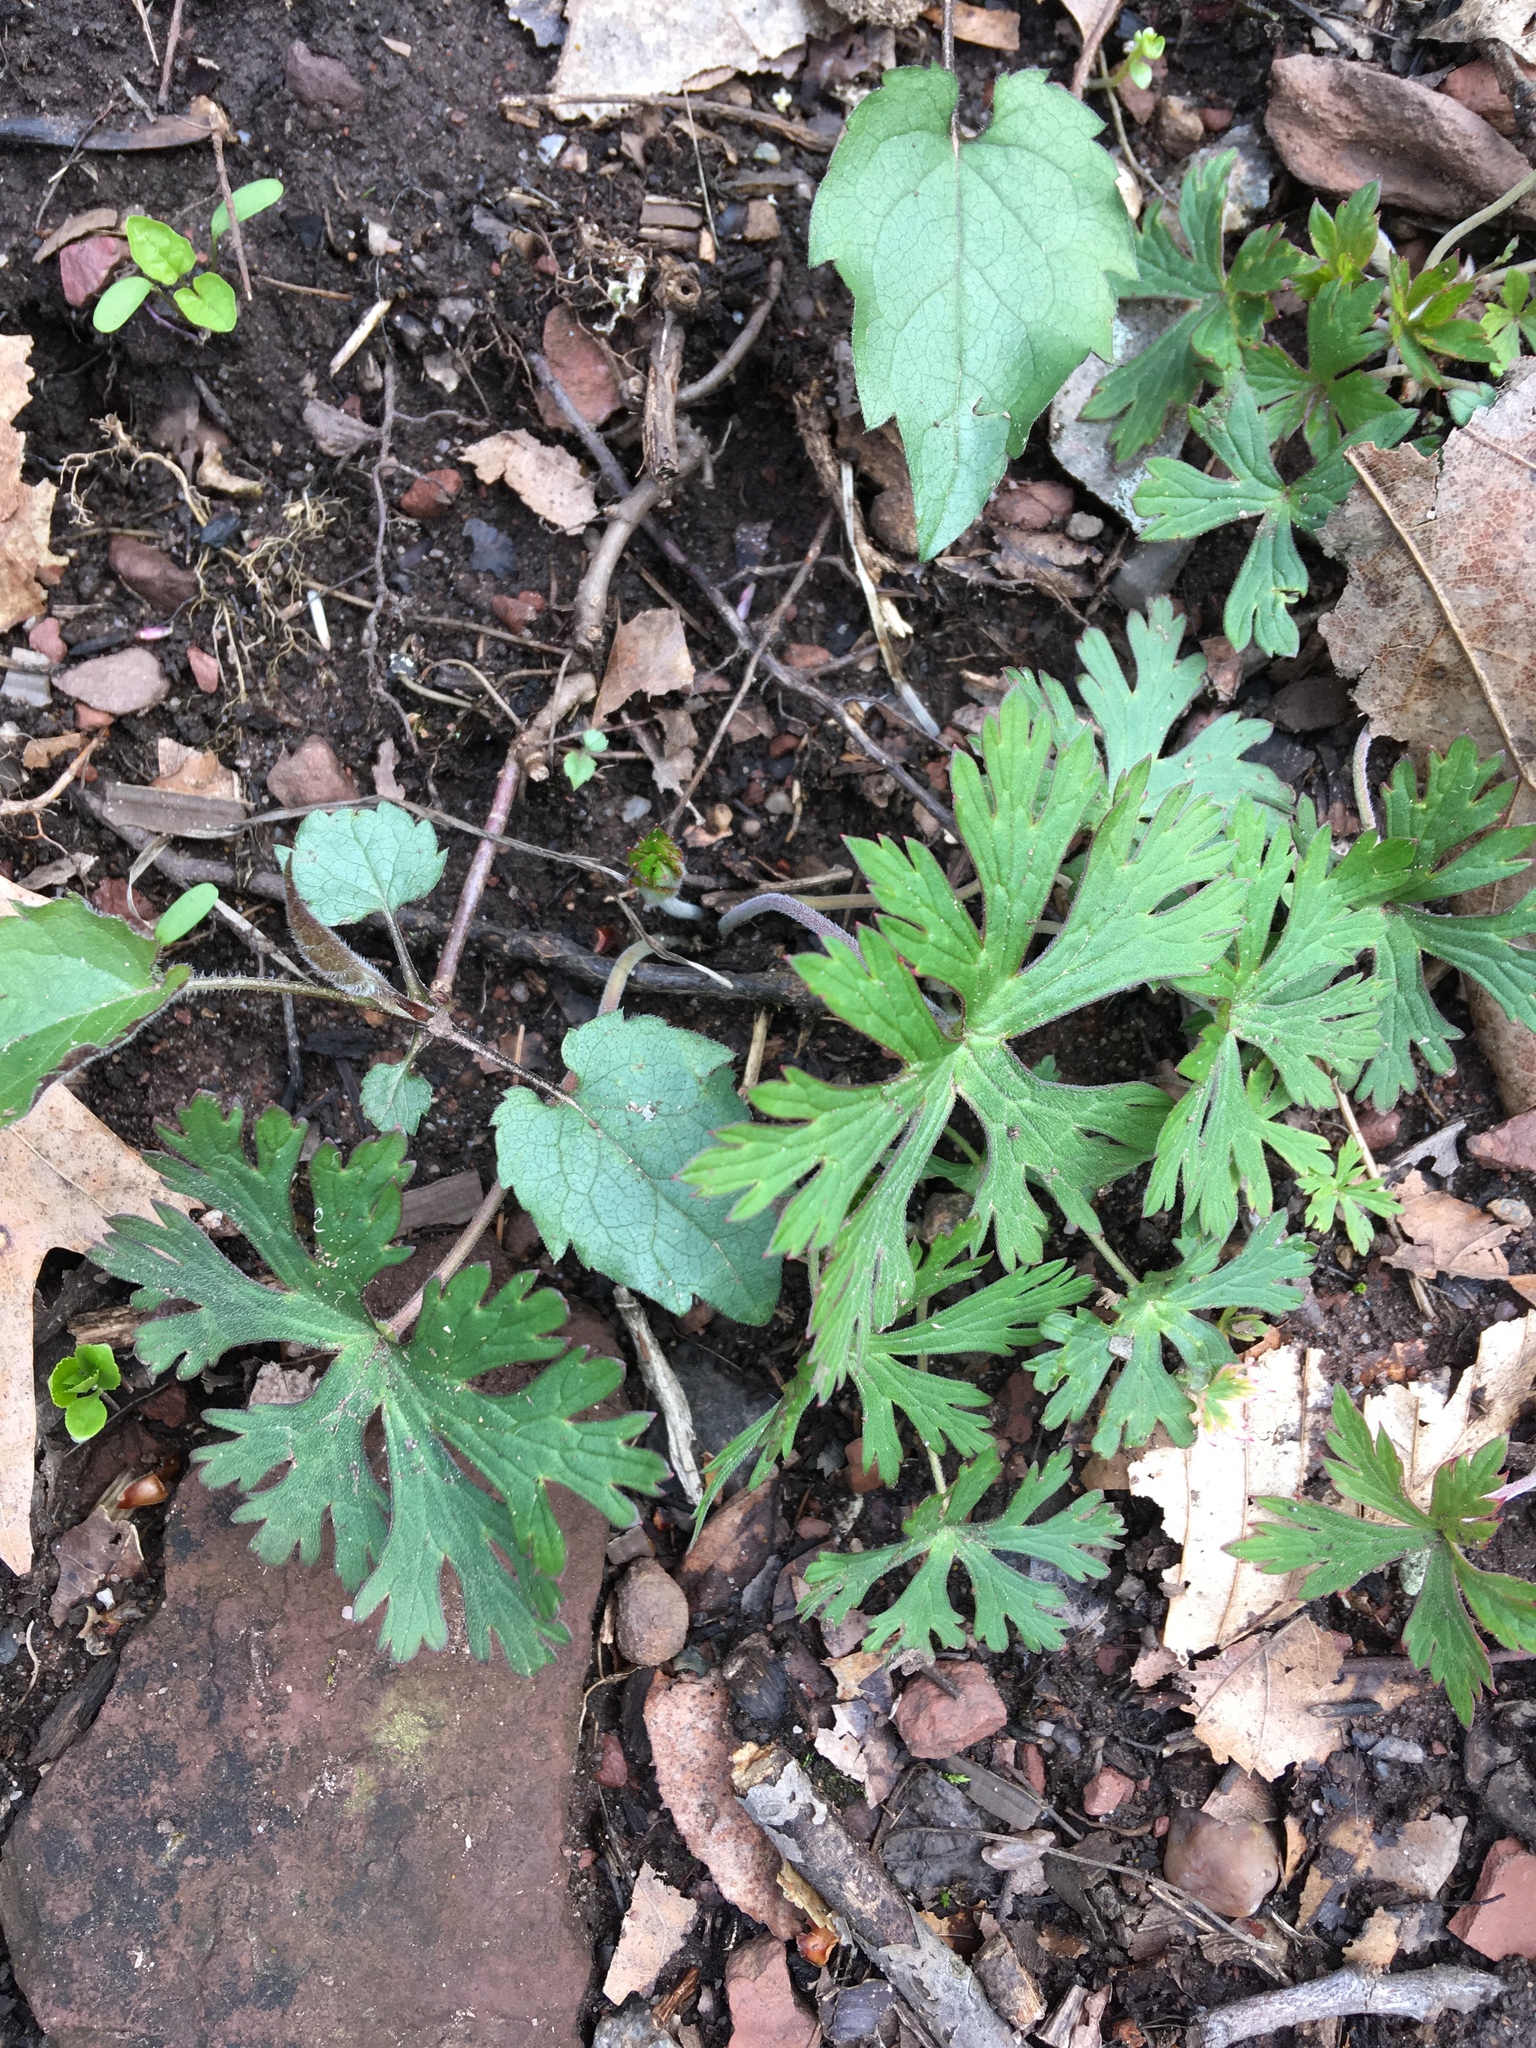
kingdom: Plantae
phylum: Tracheophyta
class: Magnoliopsida
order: Geraniales
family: Geraniaceae
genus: Geranium
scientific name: Geranium maculatum
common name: Spotted geranium
